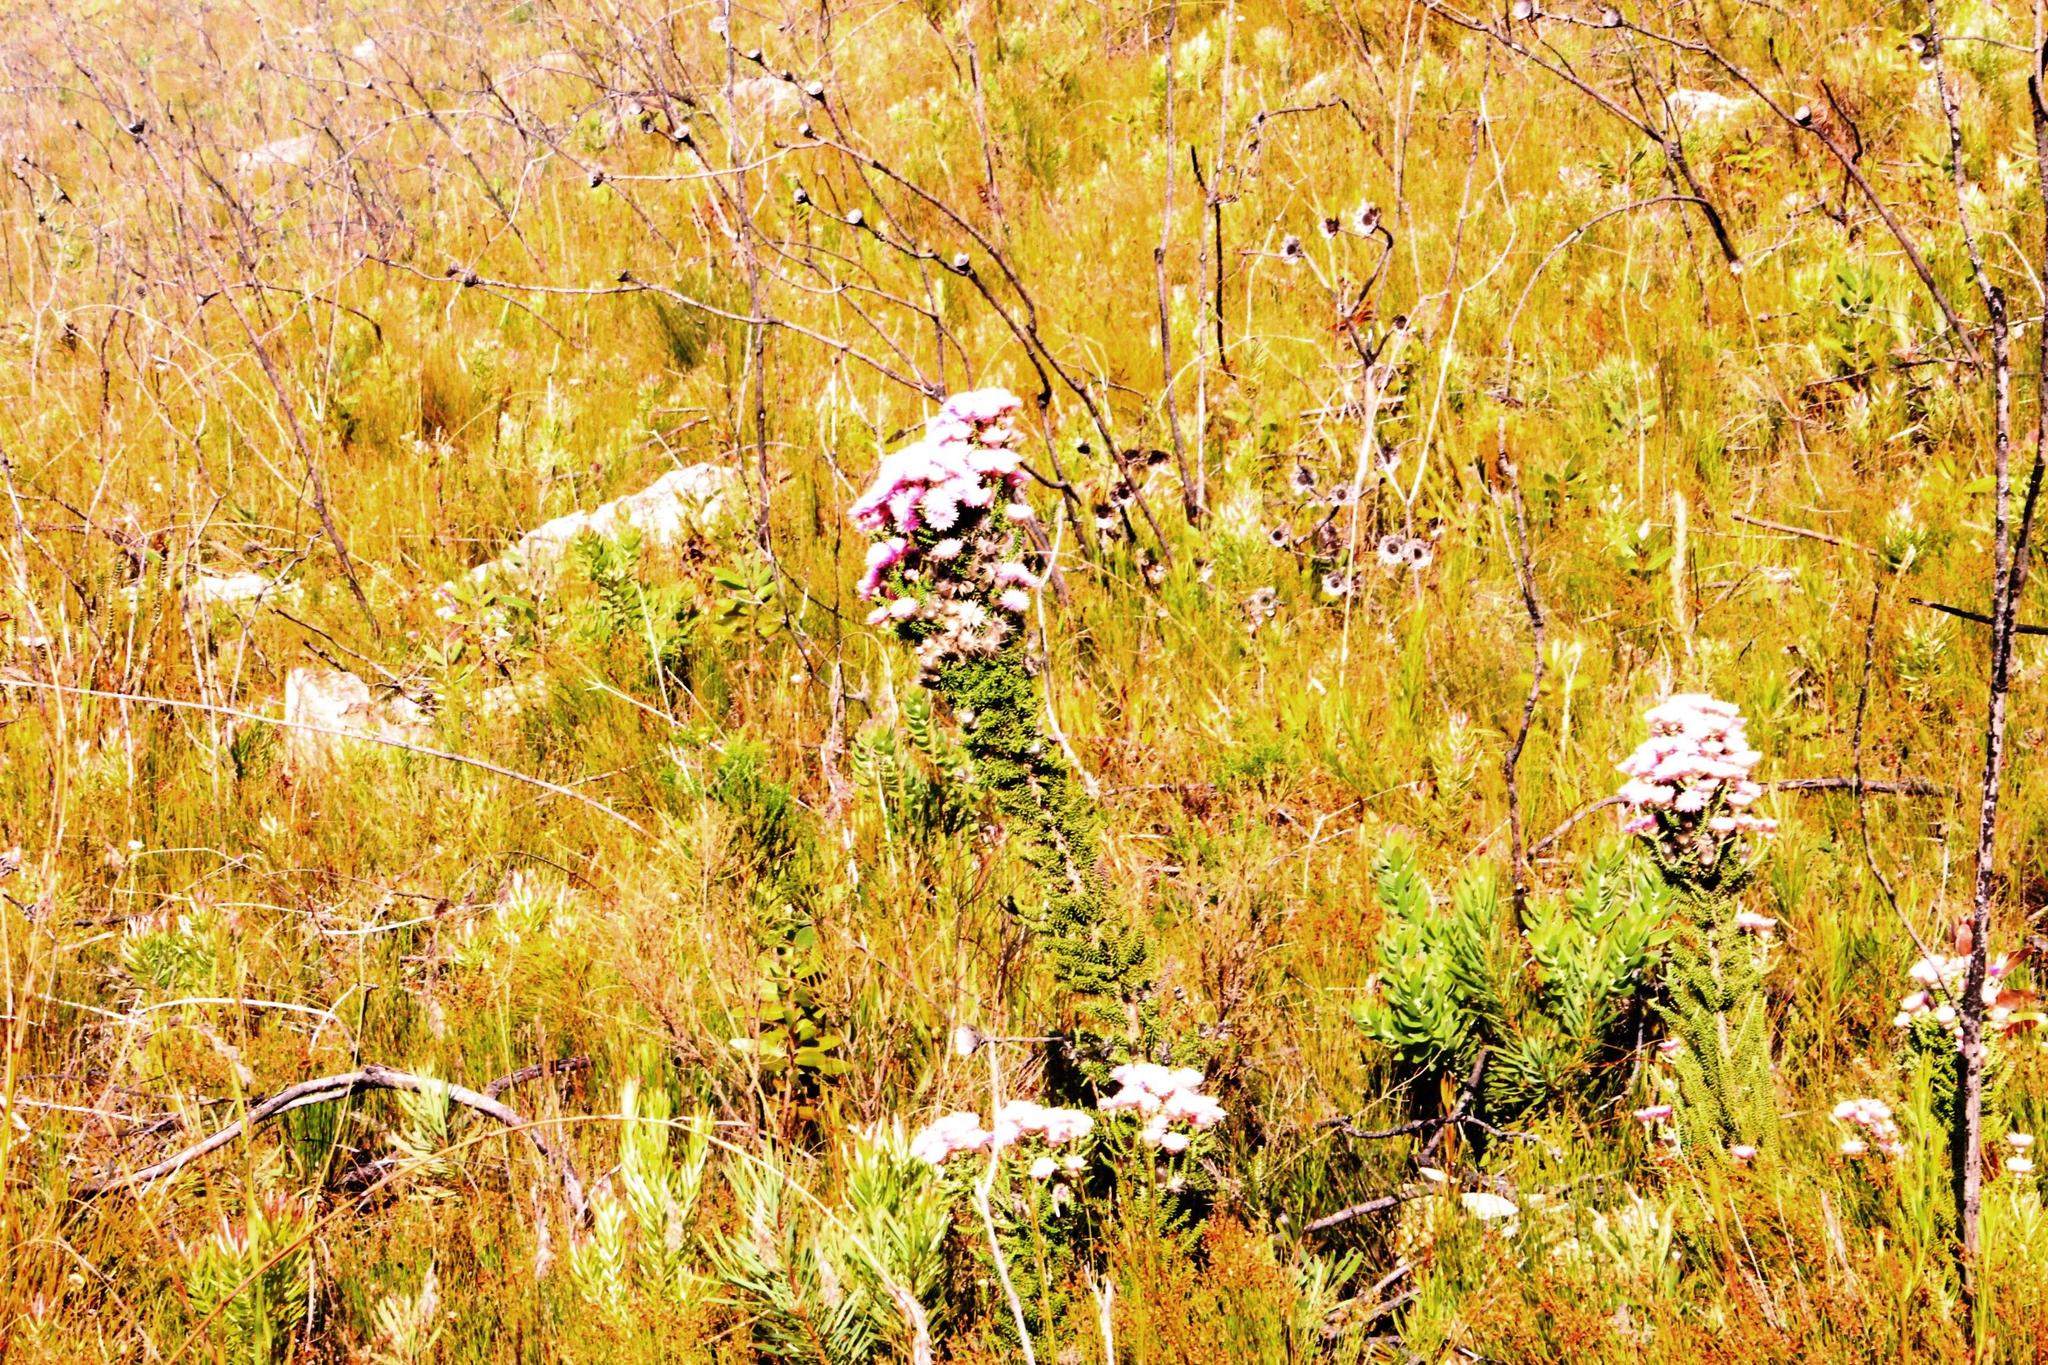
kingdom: Plantae
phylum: Tracheophyta
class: Magnoliopsida
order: Asterales
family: Asteraceae
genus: Phaenocoma
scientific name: Phaenocoma prolifera
